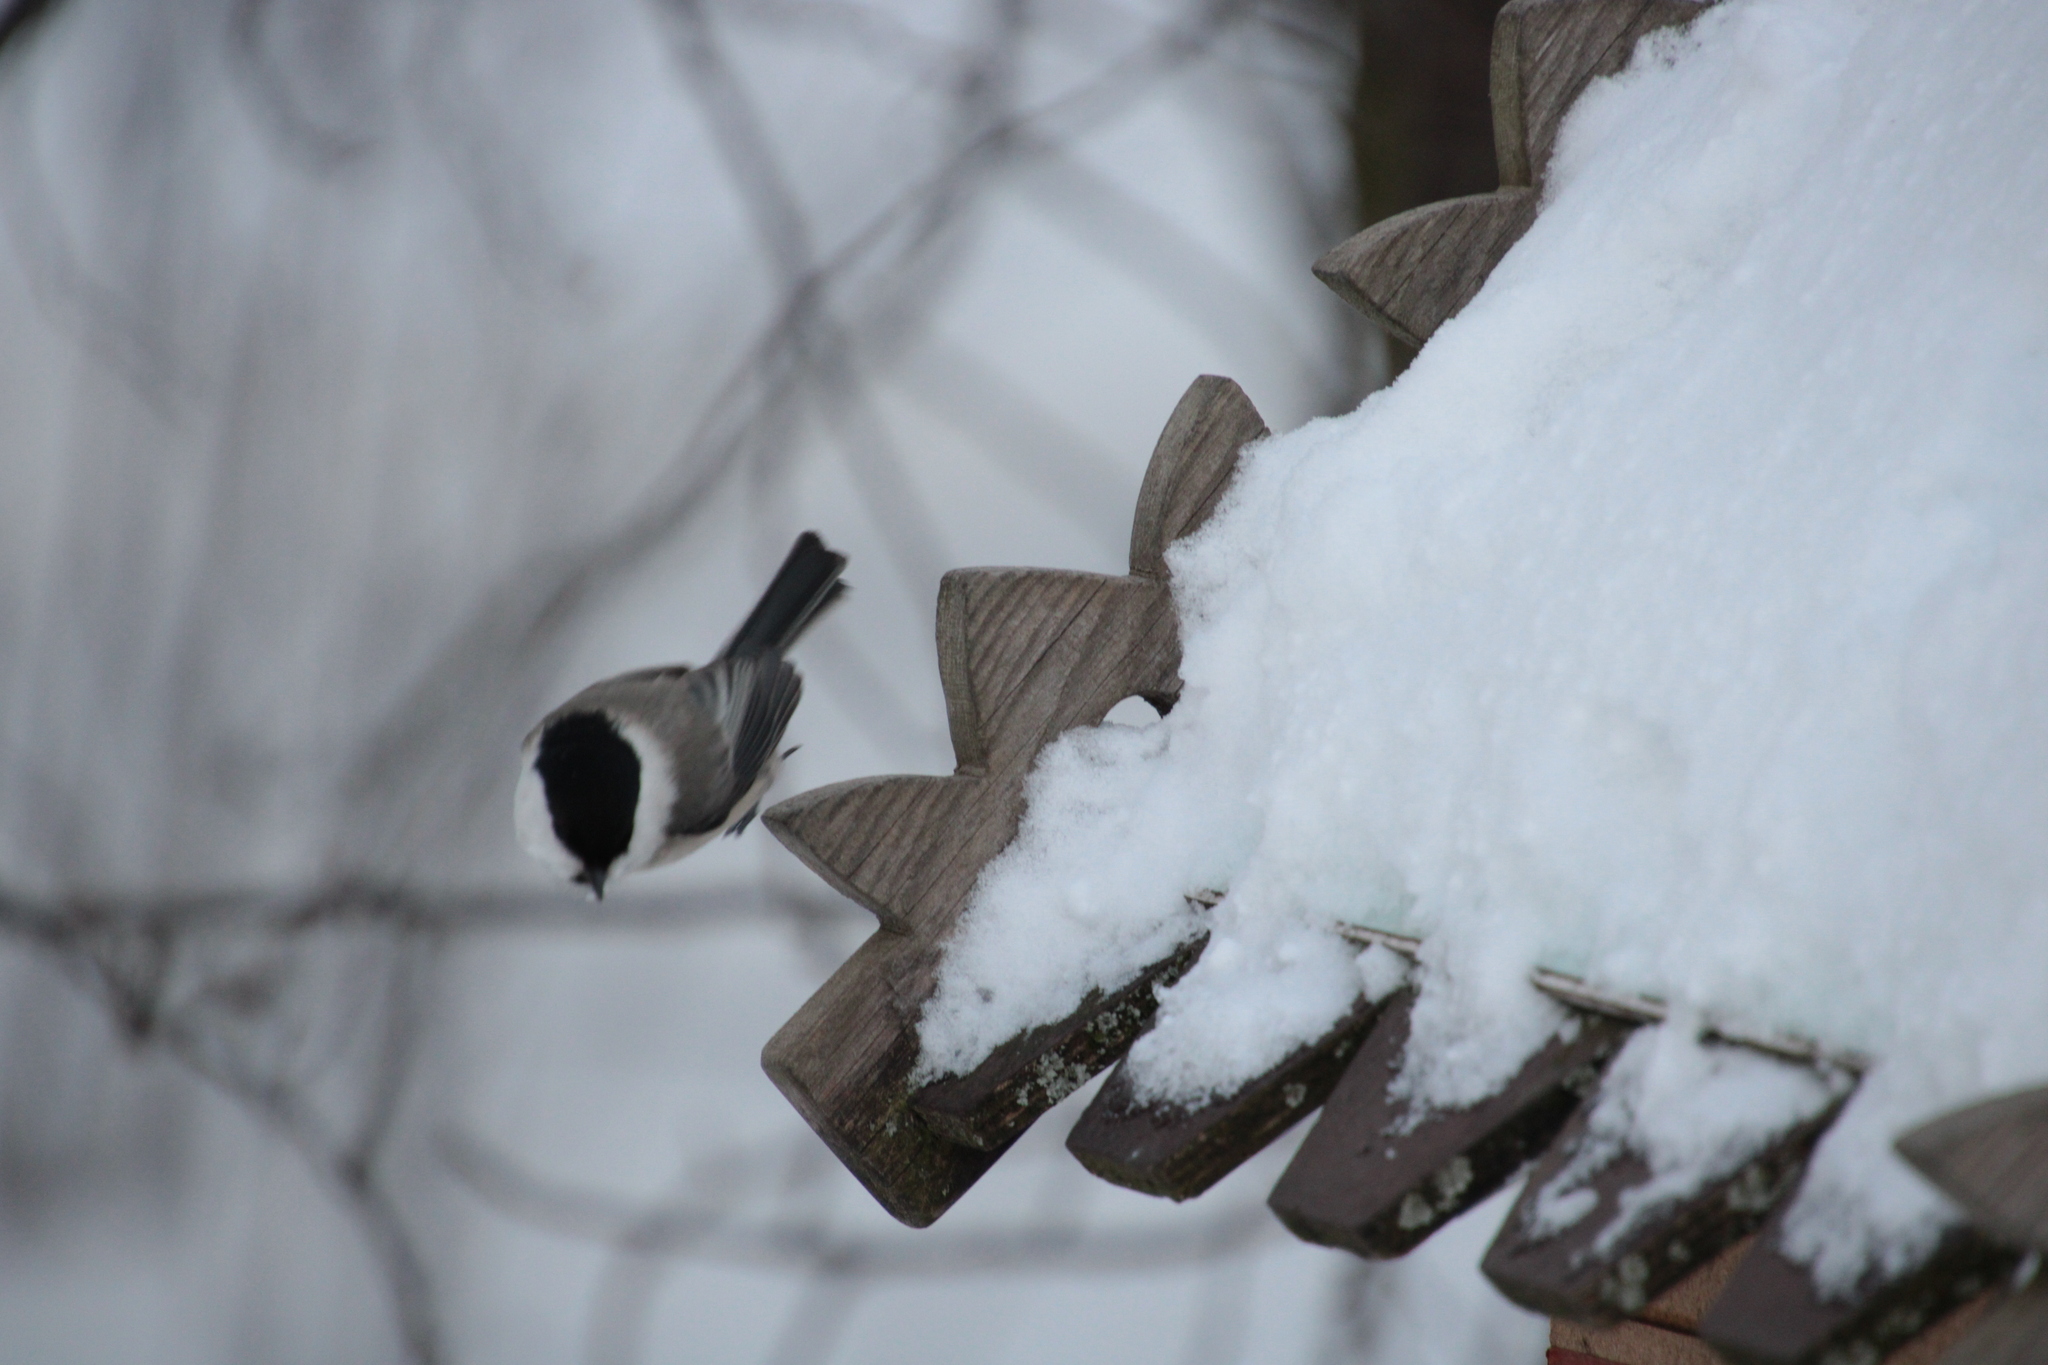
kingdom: Animalia
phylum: Chordata
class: Aves
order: Passeriformes
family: Paridae
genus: Poecile
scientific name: Poecile montanus
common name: Willow tit
